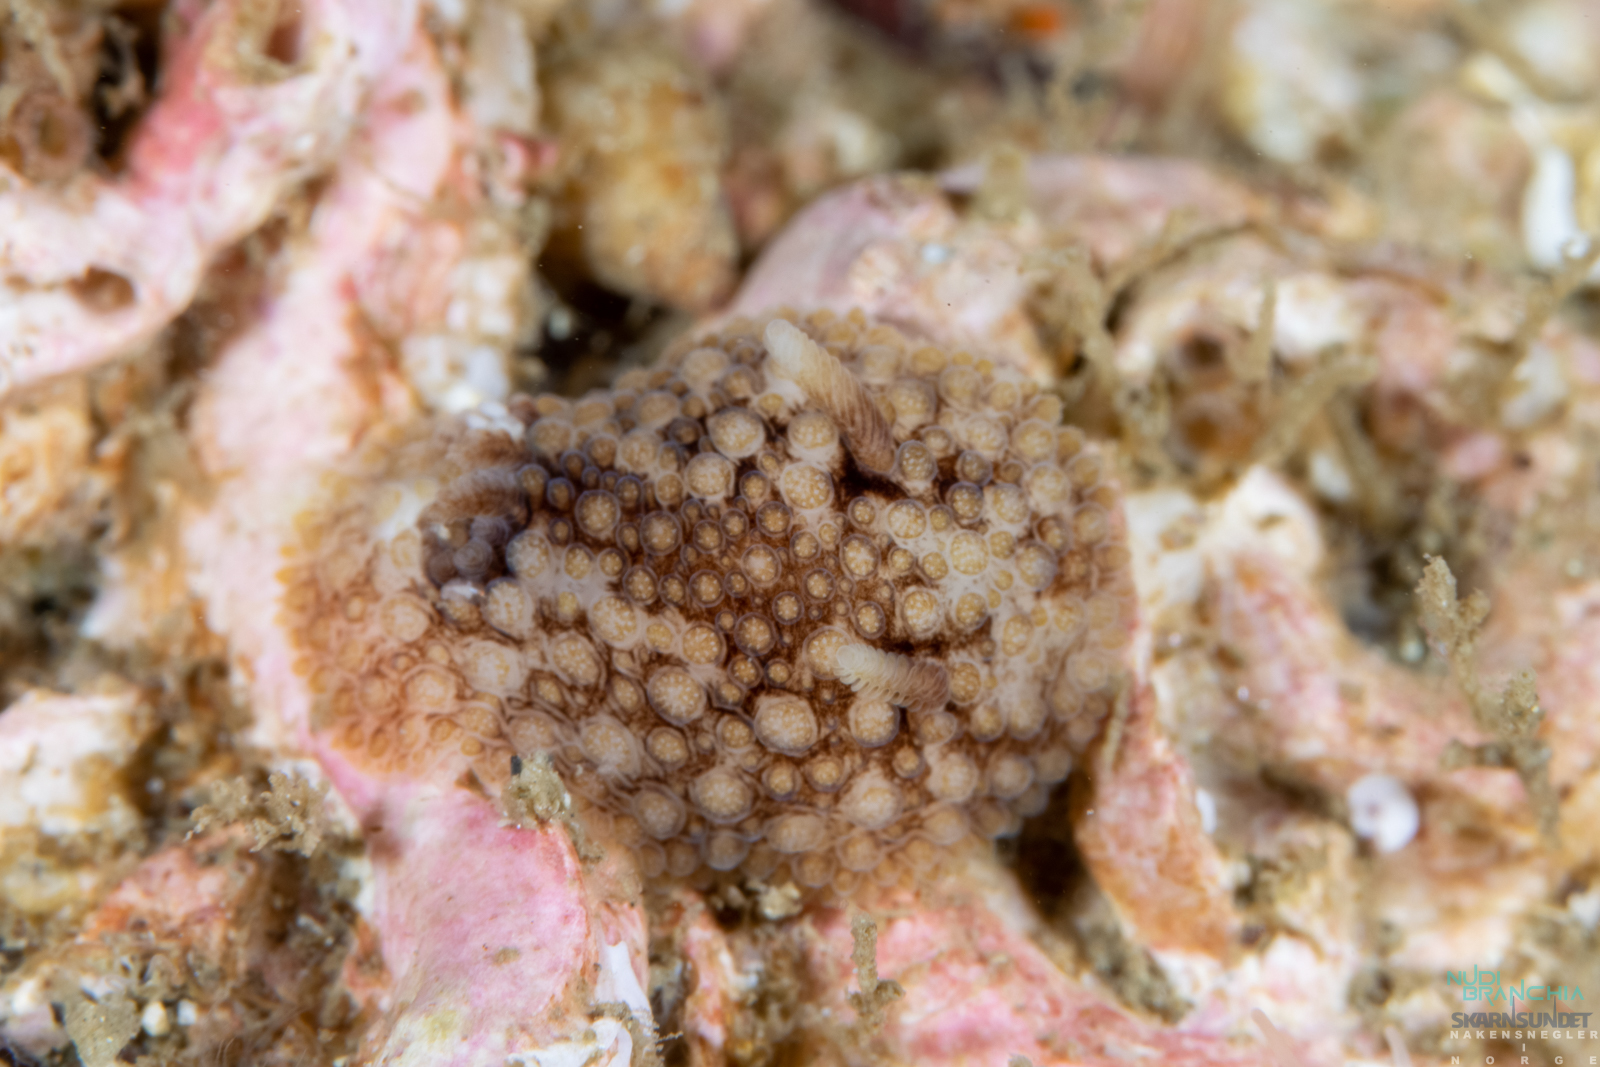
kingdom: Animalia
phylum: Mollusca
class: Gastropoda
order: Nudibranchia
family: Onchidorididae
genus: Onchidoris
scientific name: Onchidoris bilamellata
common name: Barnacle-eating onchidoris
